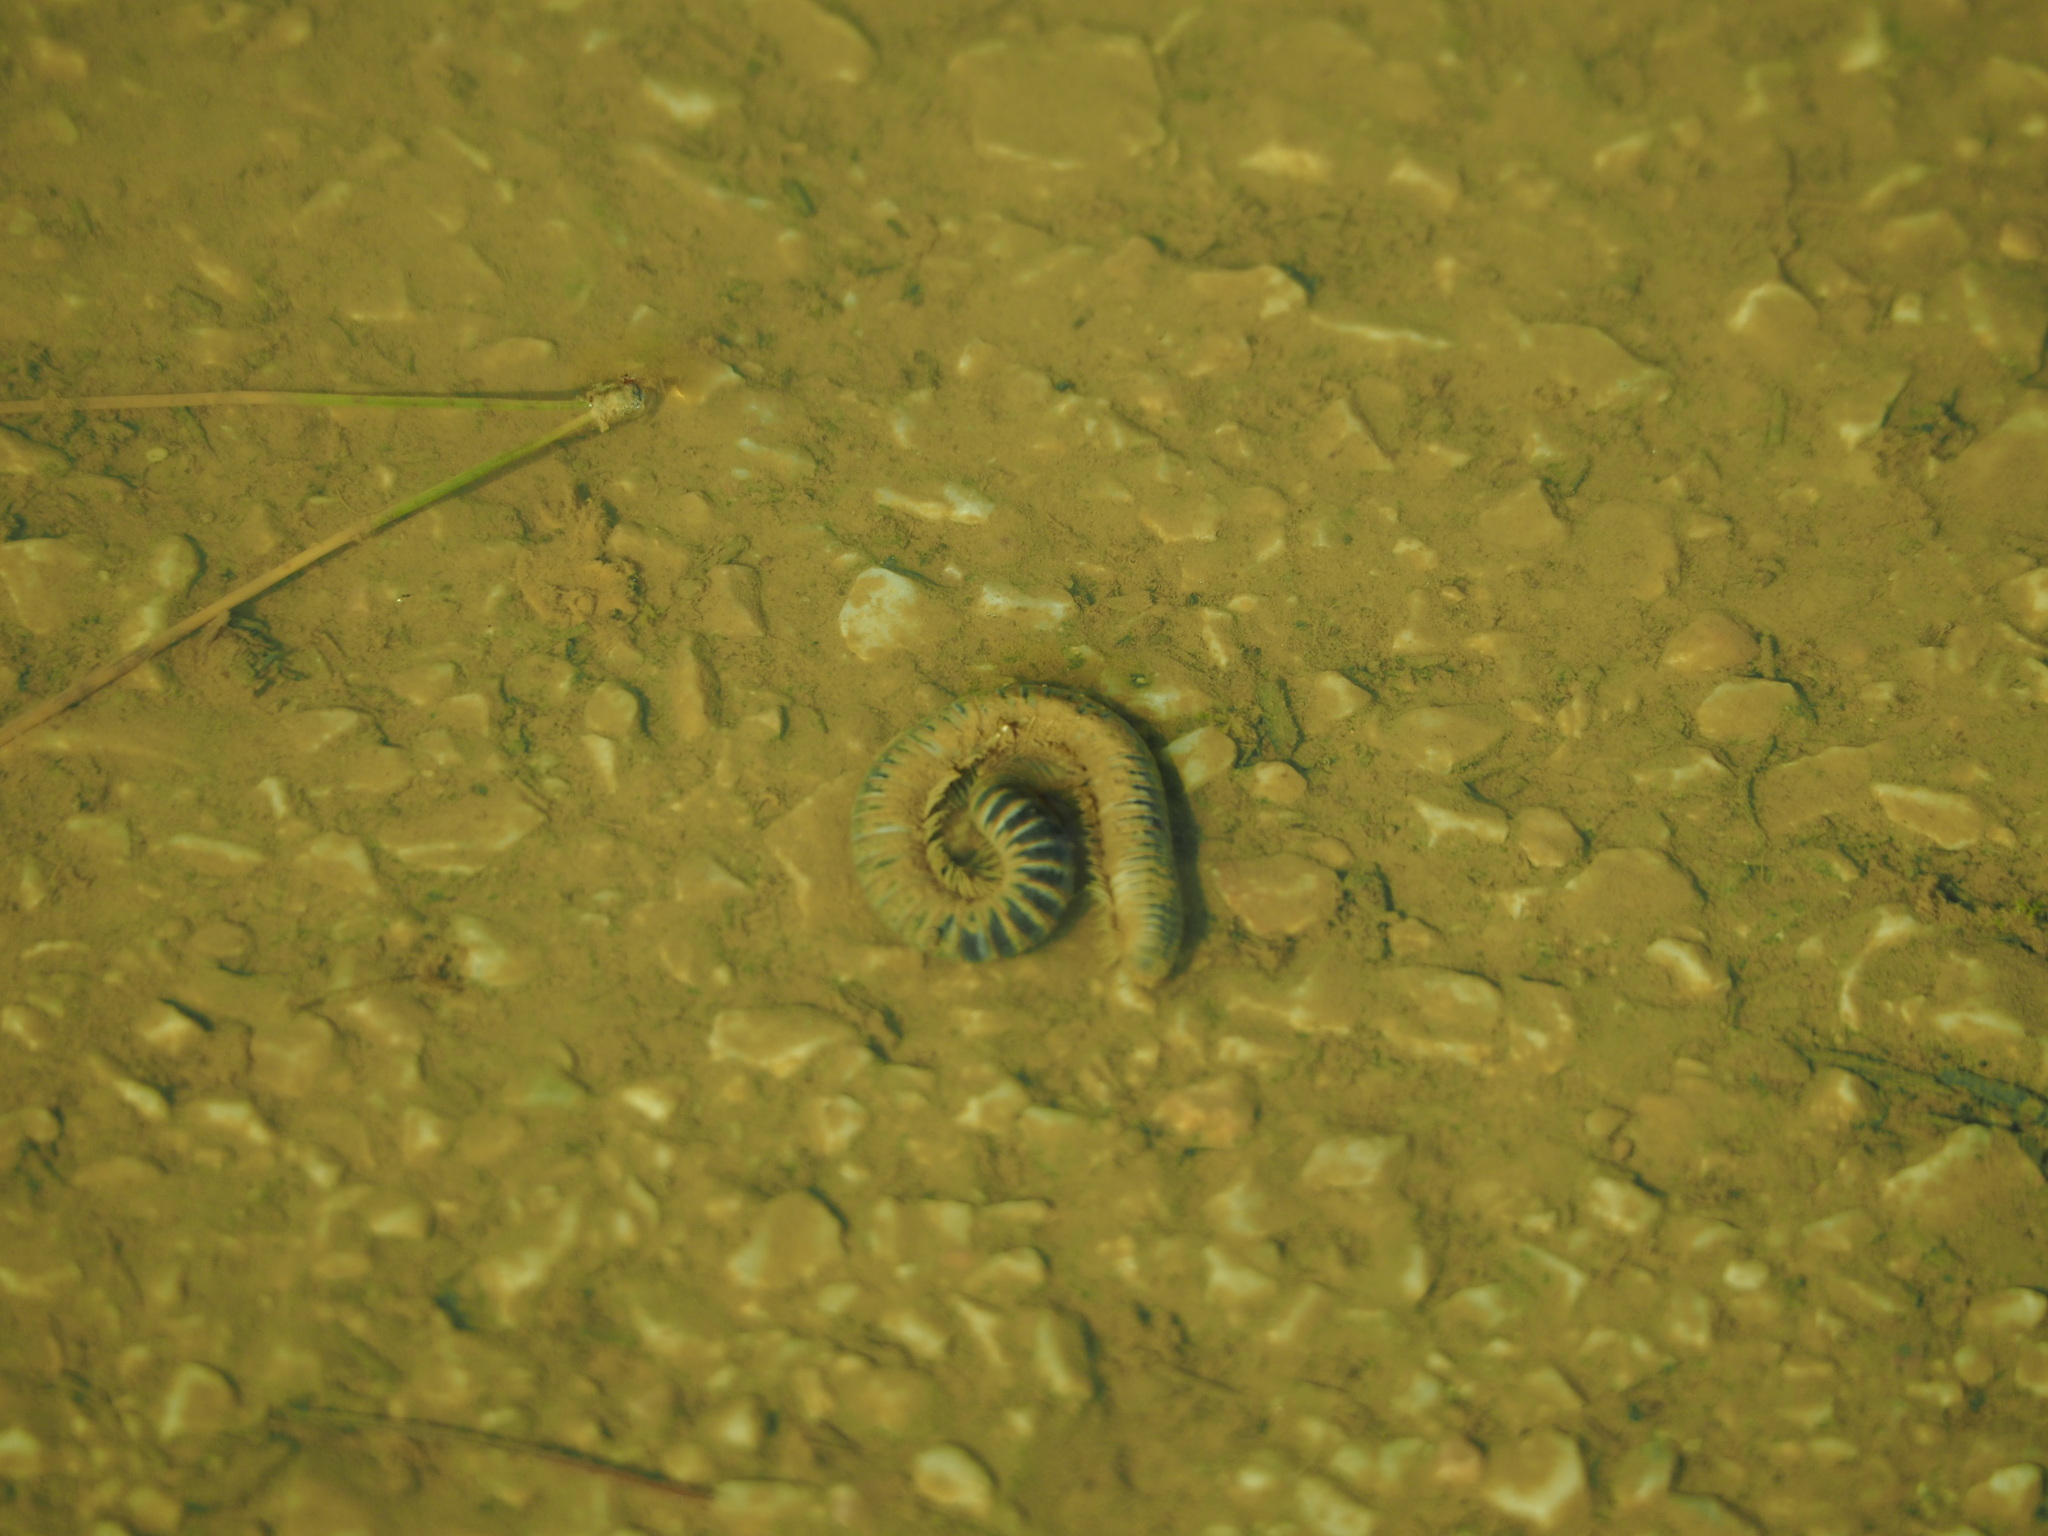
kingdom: Animalia
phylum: Arthropoda
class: Diplopoda
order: Julida
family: Julidae
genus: Pachyiulus
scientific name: Pachyiulus flavipes
